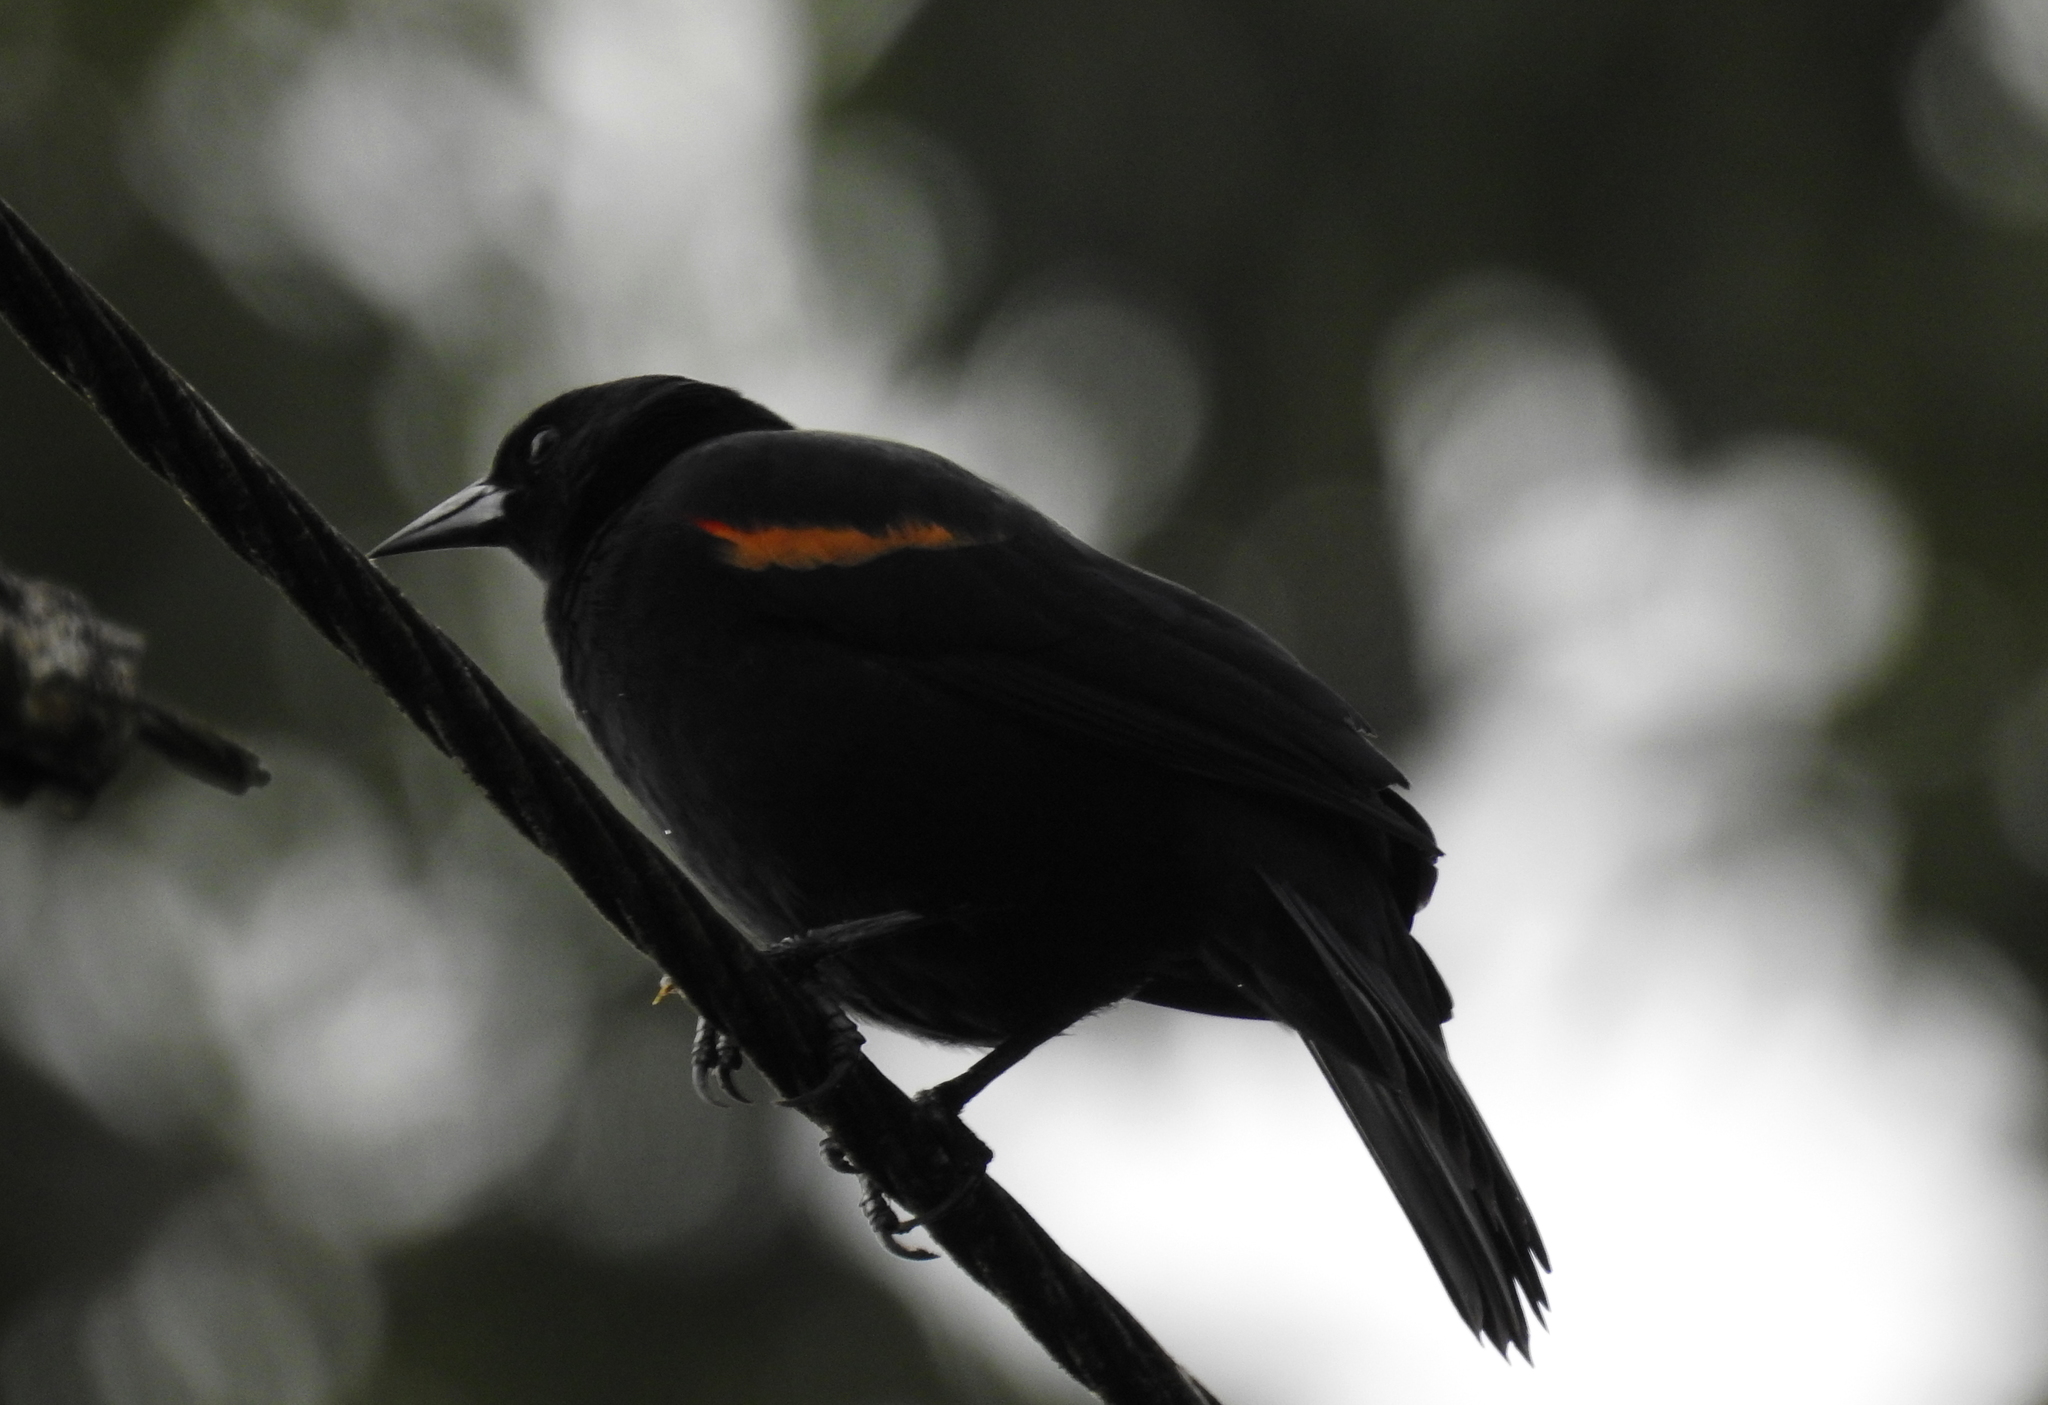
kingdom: Animalia
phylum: Chordata
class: Aves
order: Passeriformes
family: Icteridae
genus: Agelaius
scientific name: Agelaius phoeniceus
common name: Red-winged blackbird
